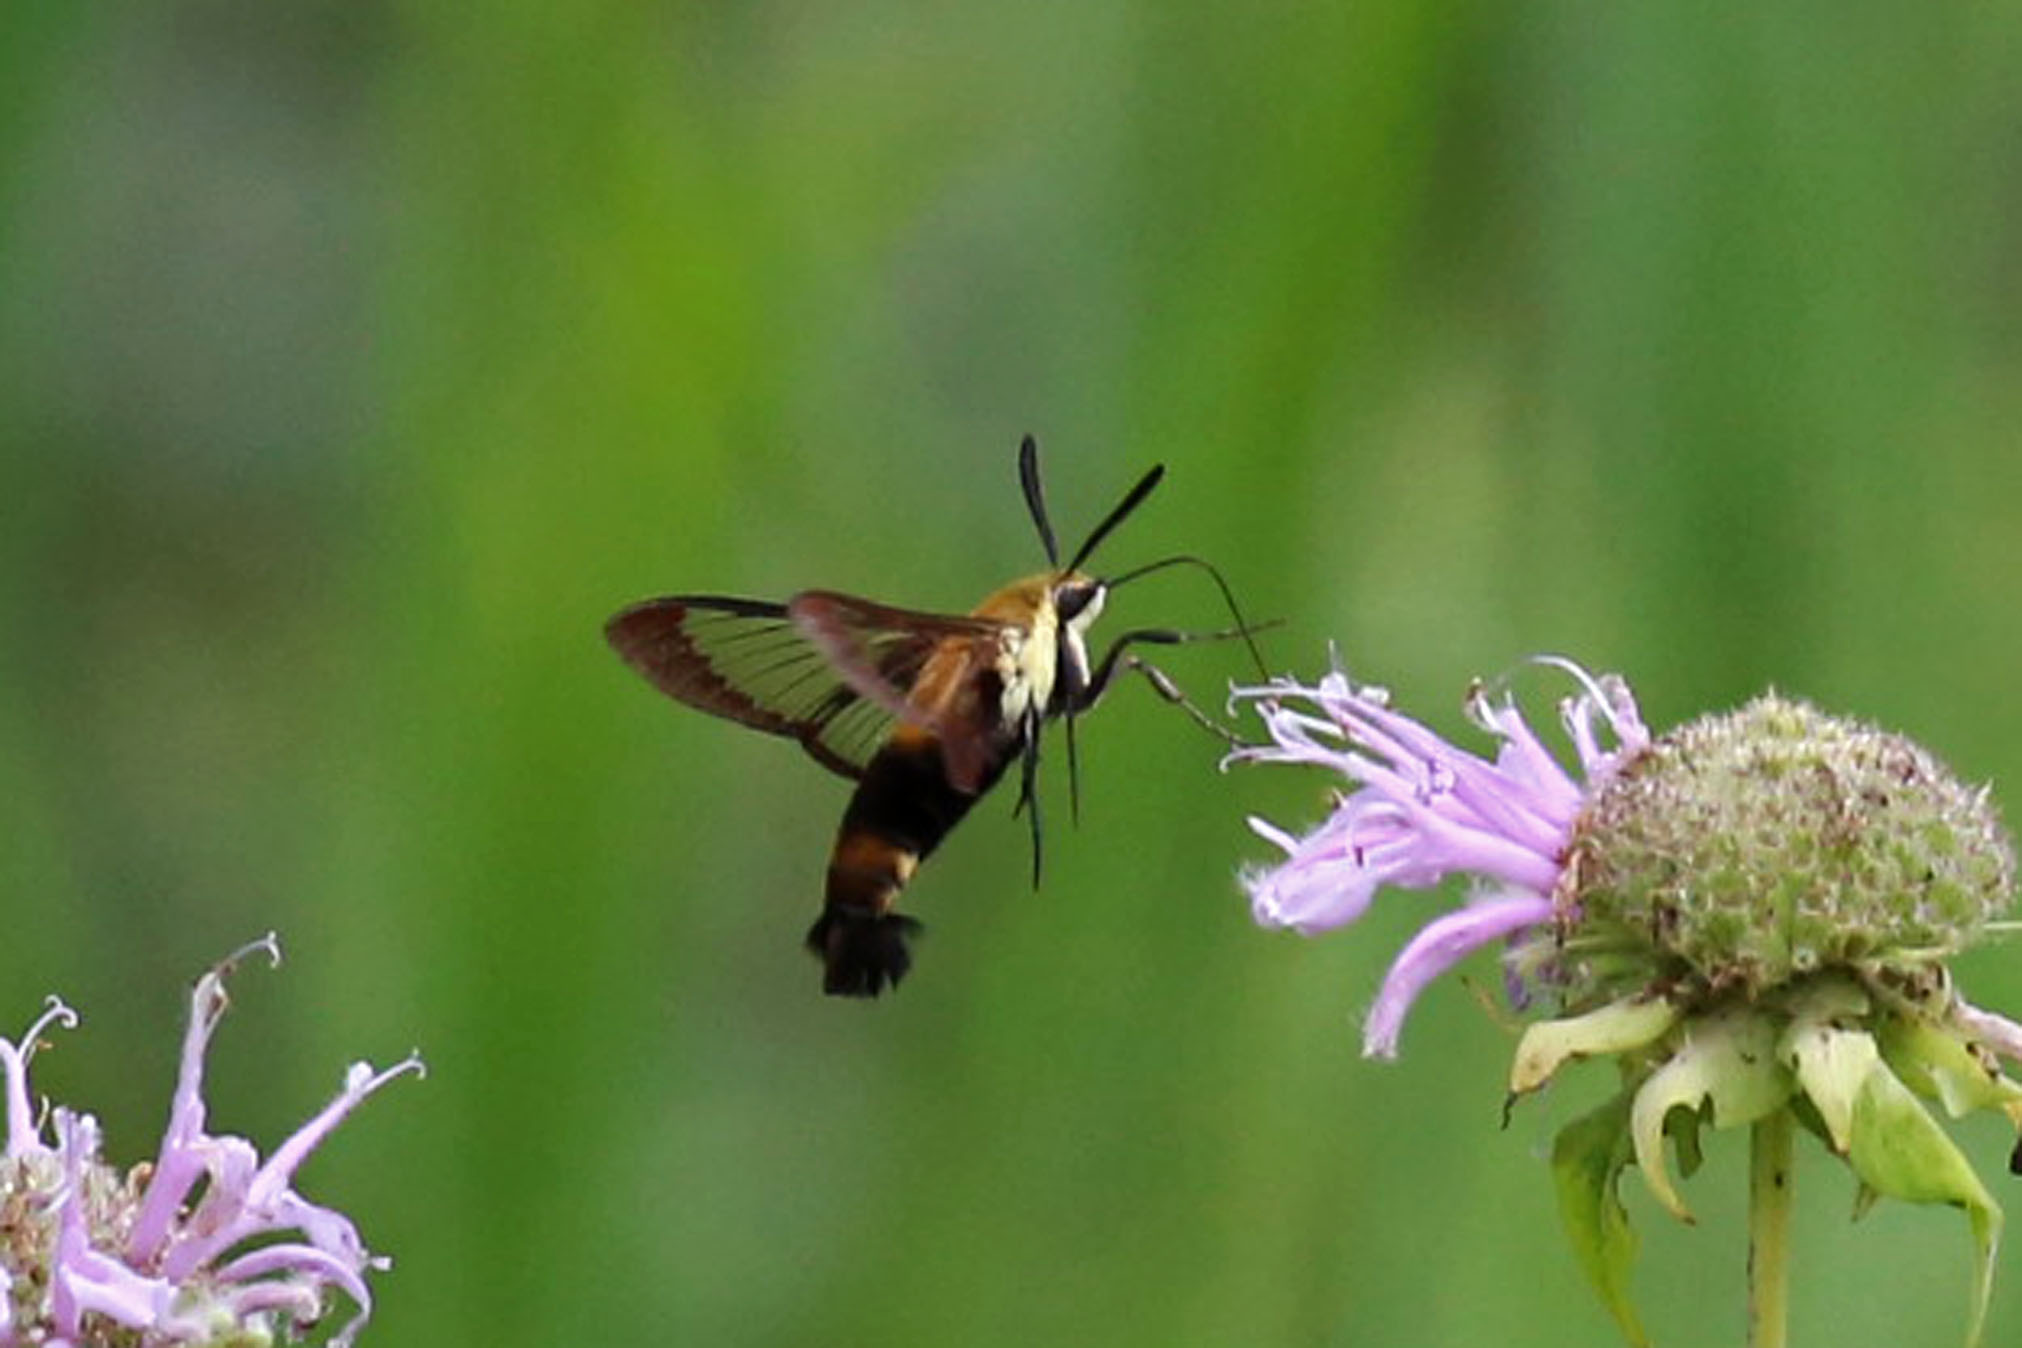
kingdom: Animalia
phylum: Arthropoda
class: Insecta
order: Lepidoptera
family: Sphingidae
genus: Hemaris
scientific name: Hemaris diffinis
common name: Bumblebee moth
